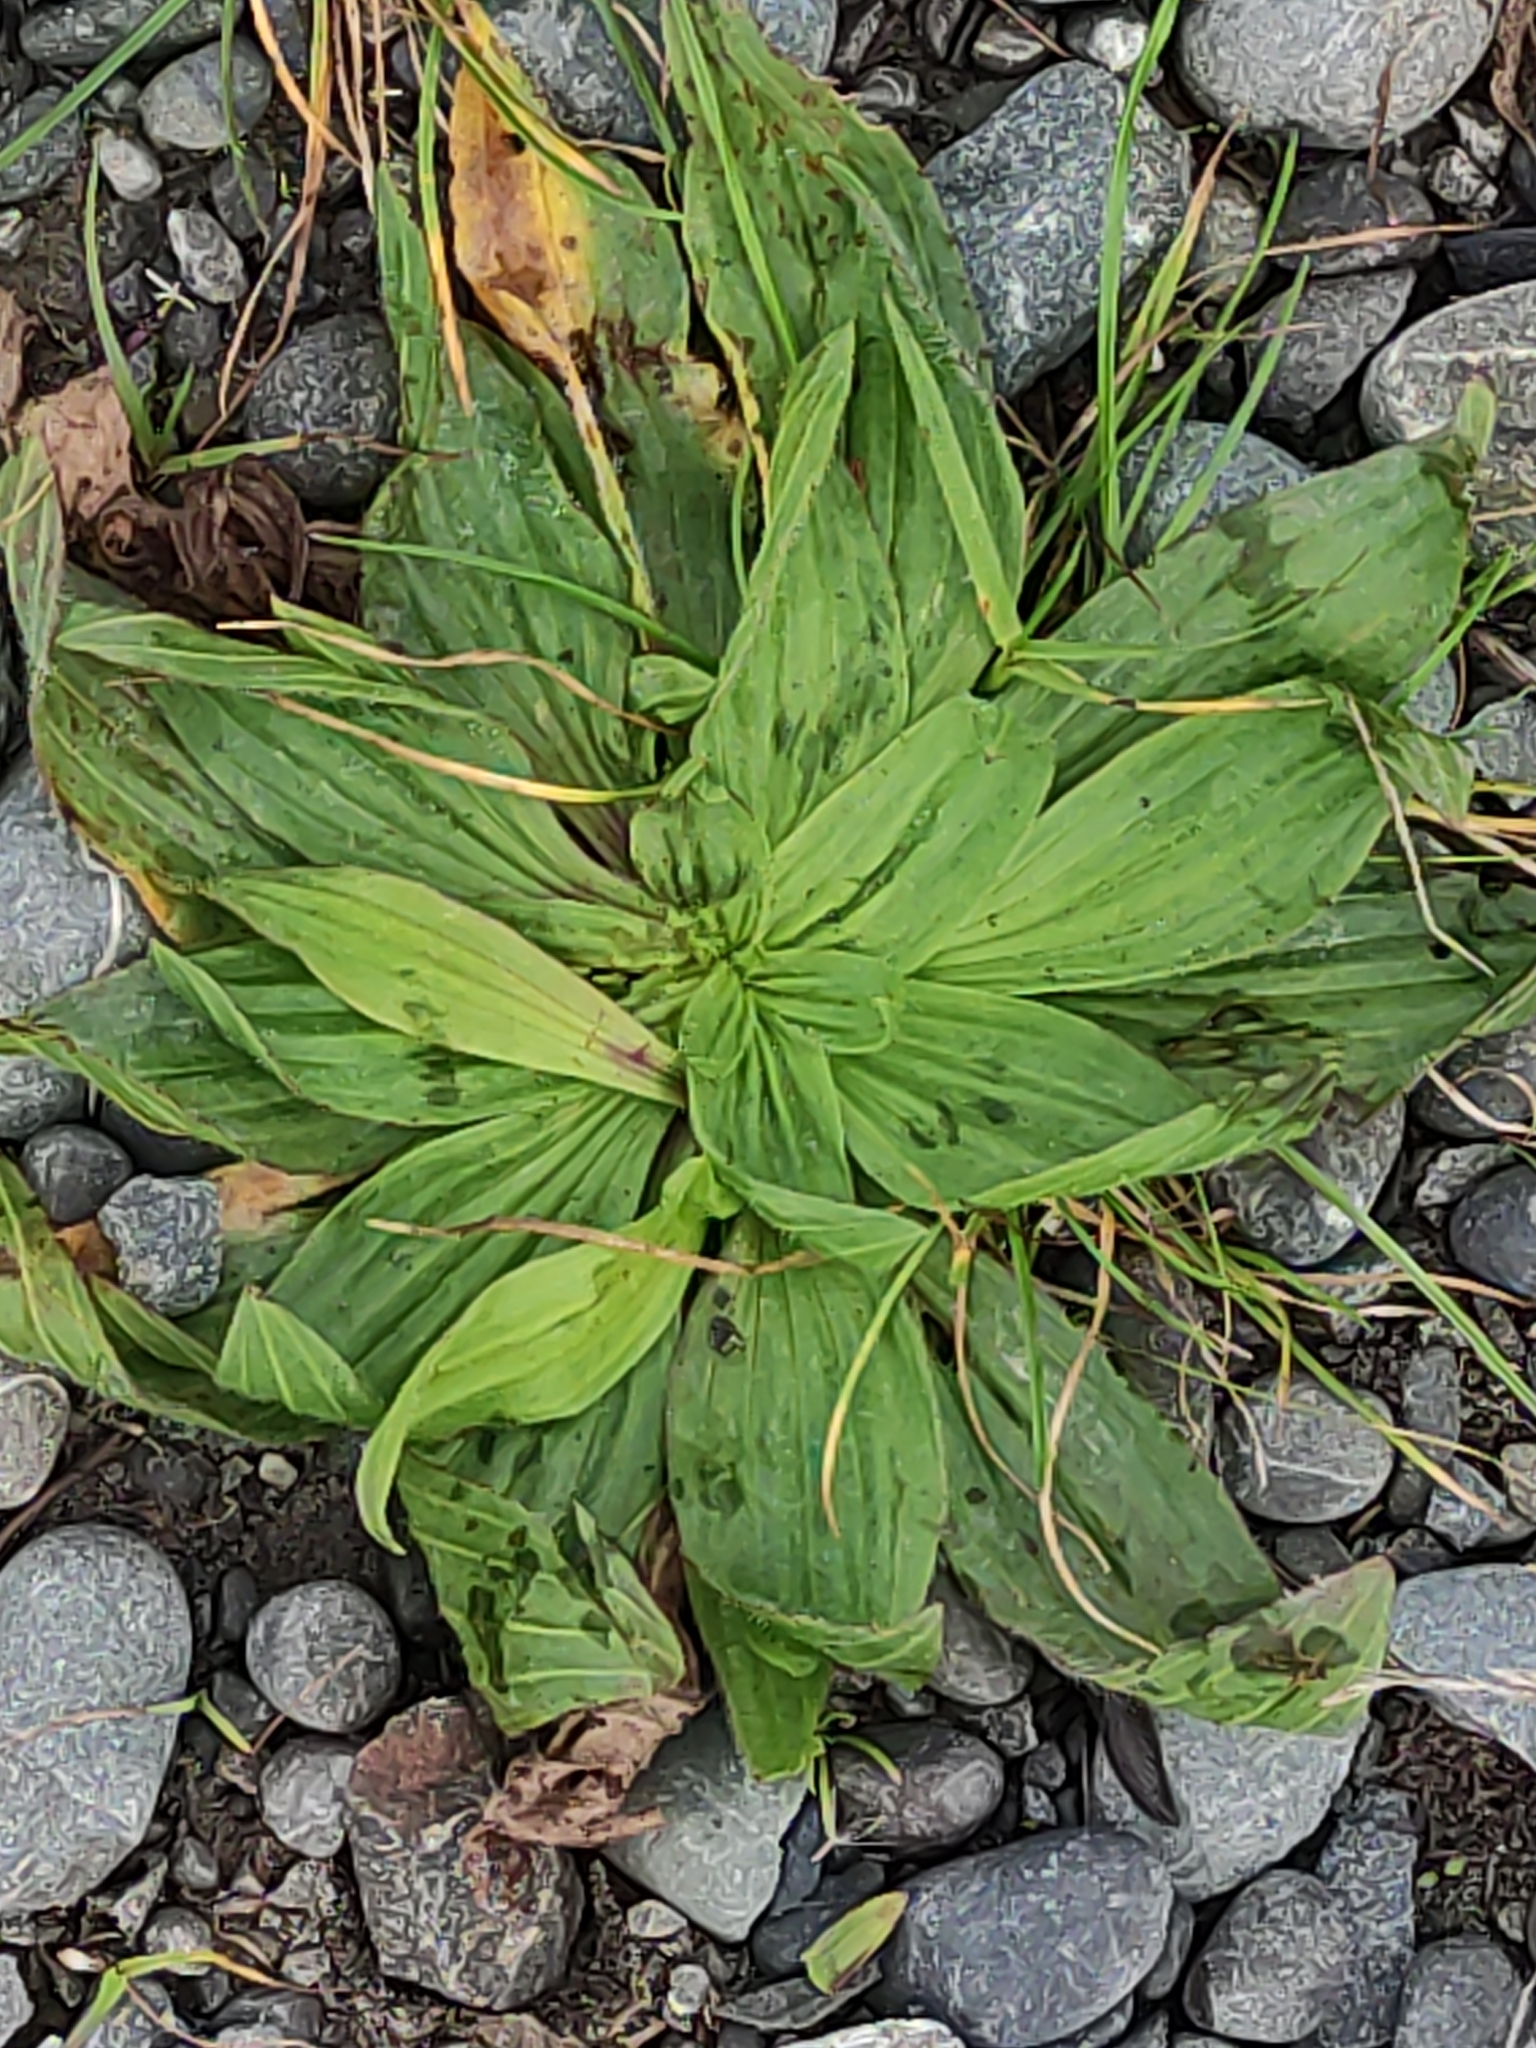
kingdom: Plantae
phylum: Tracheophyta
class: Magnoliopsida
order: Lamiales
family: Plantaginaceae
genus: Plantago
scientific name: Plantago lanceolata
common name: Ribwort plantain
